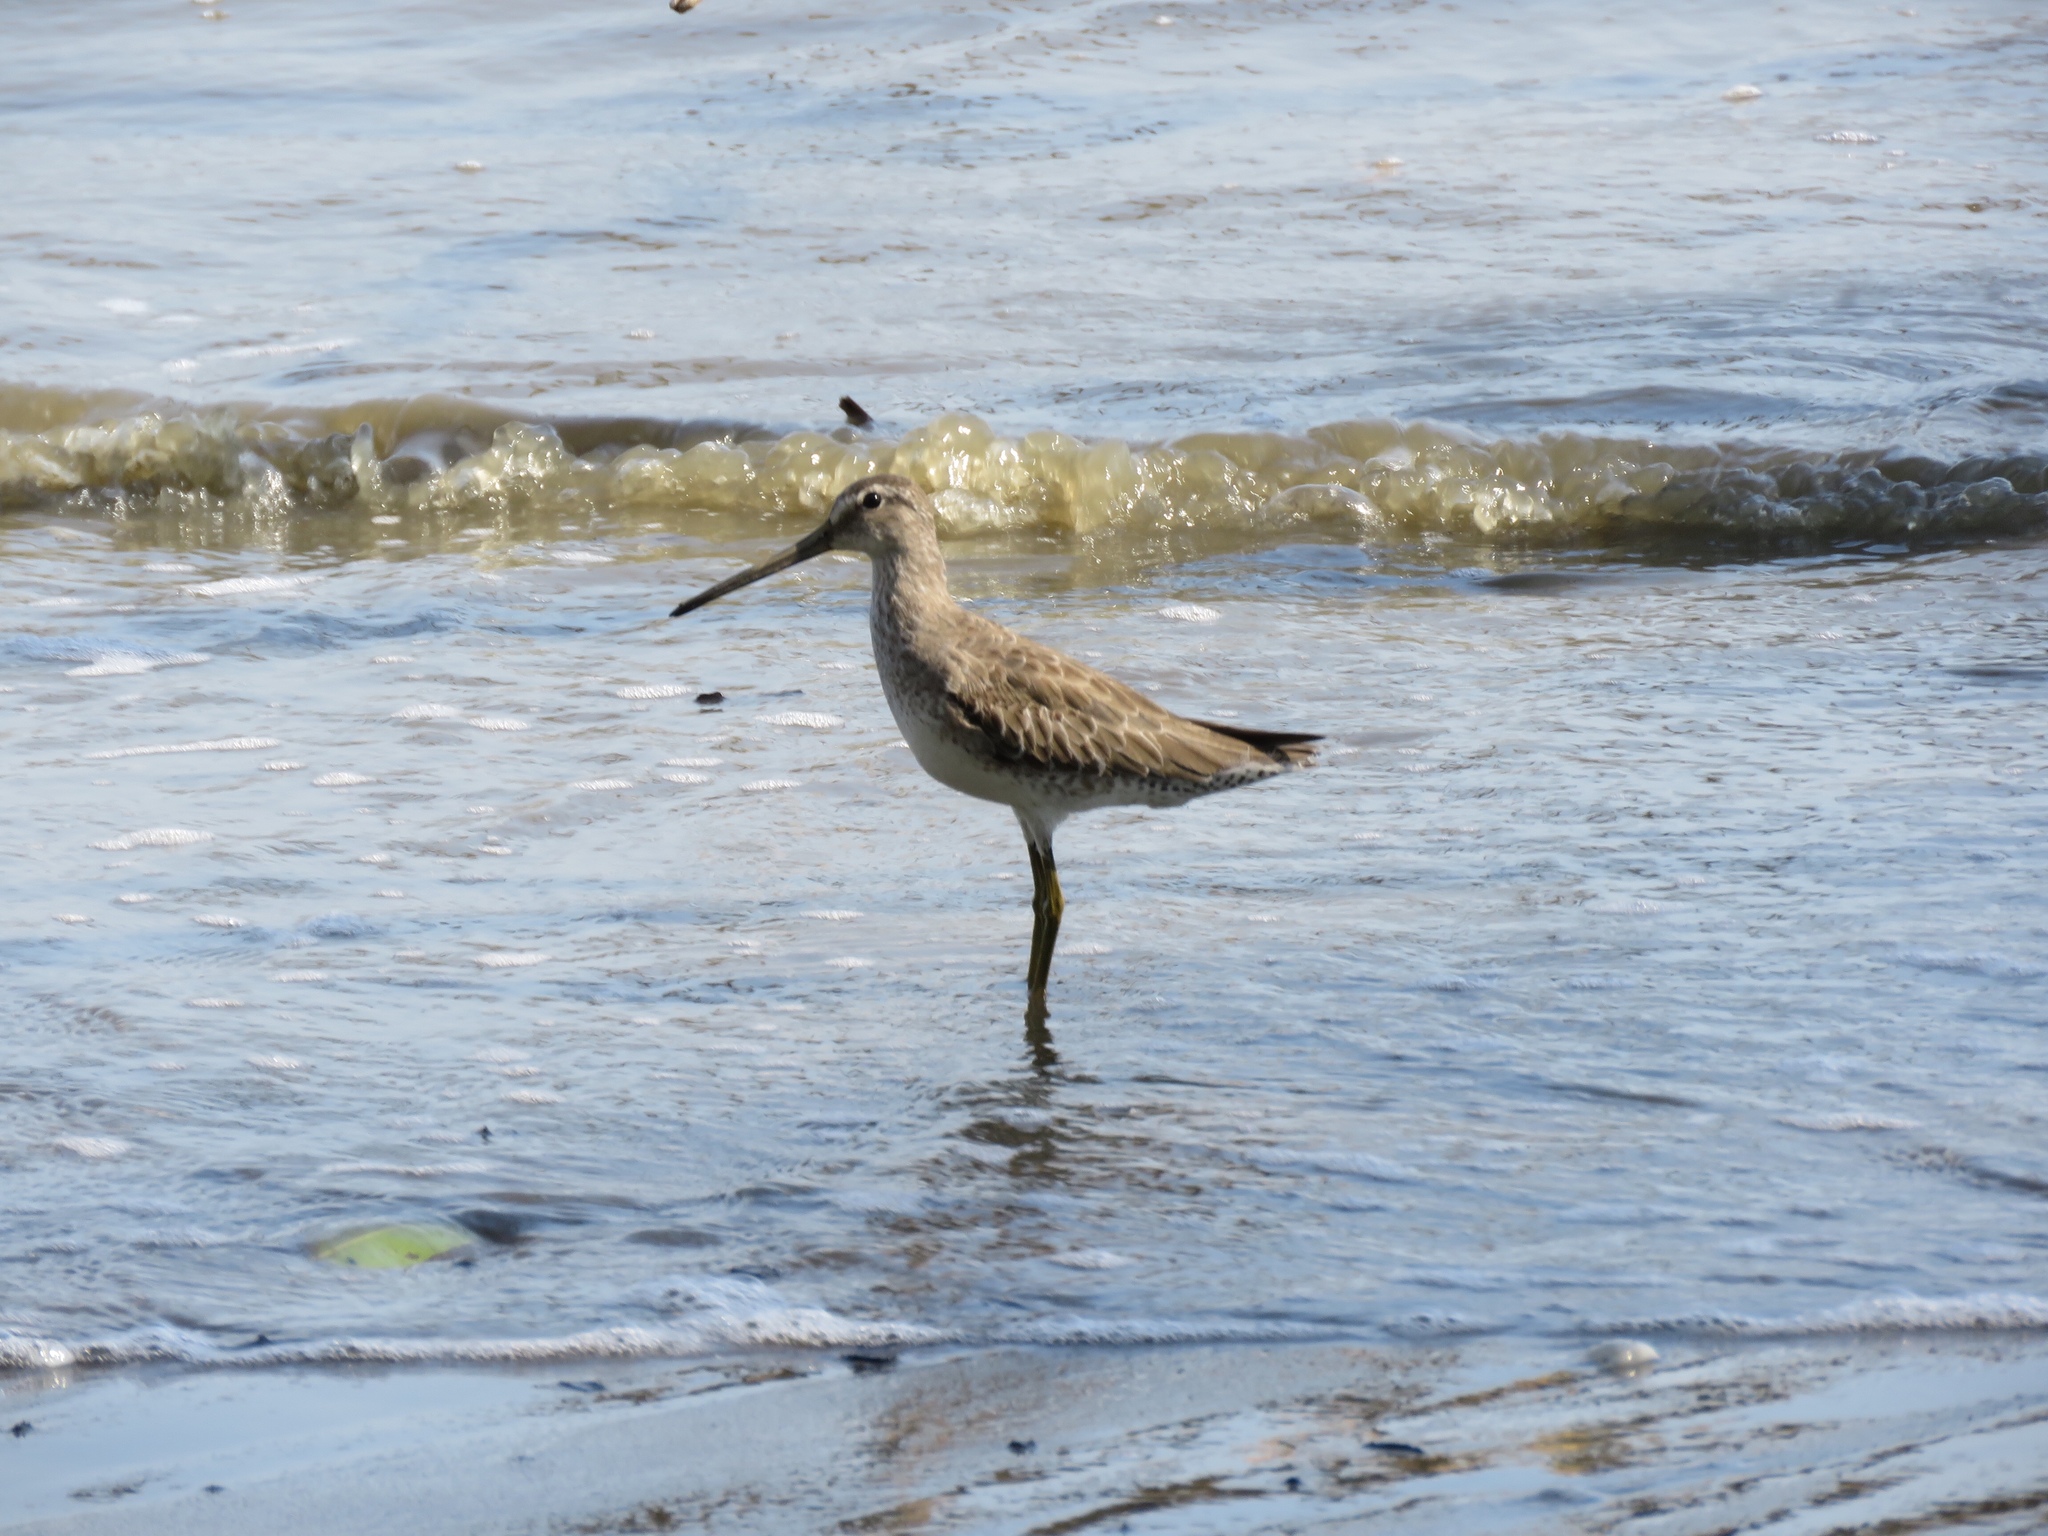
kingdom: Animalia
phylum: Chordata
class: Aves
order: Charadriiformes
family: Scolopacidae
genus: Limnodromus
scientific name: Limnodromus griseus
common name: Short-billed dowitcher
